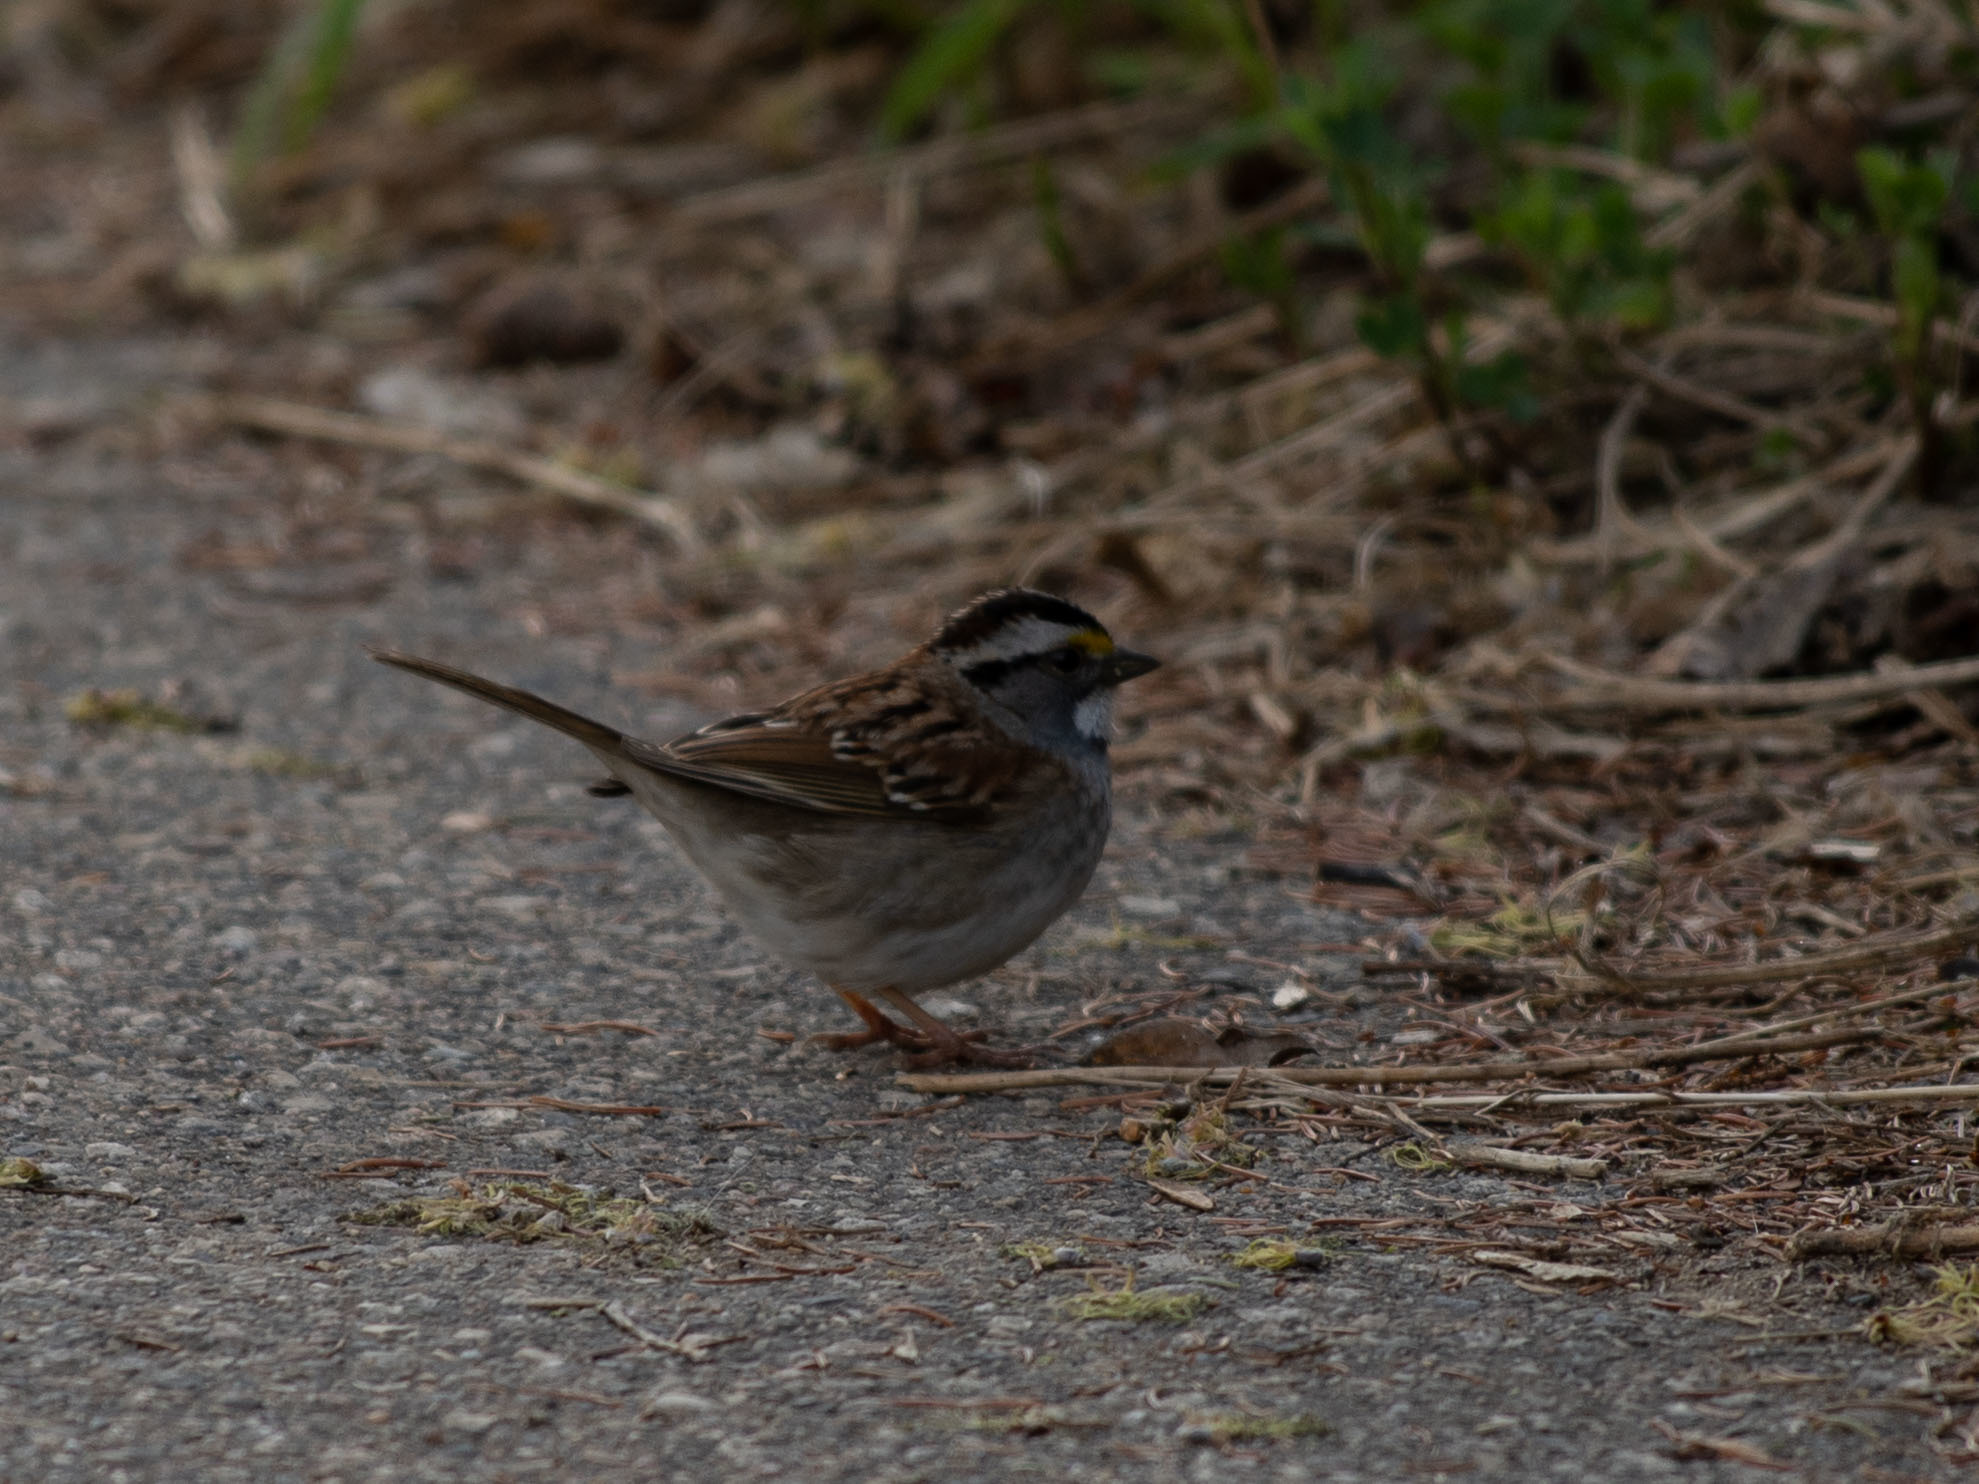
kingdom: Animalia
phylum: Chordata
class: Aves
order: Passeriformes
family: Passerellidae
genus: Zonotrichia
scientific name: Zonotrichia albicollis
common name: White-throated sparrow
